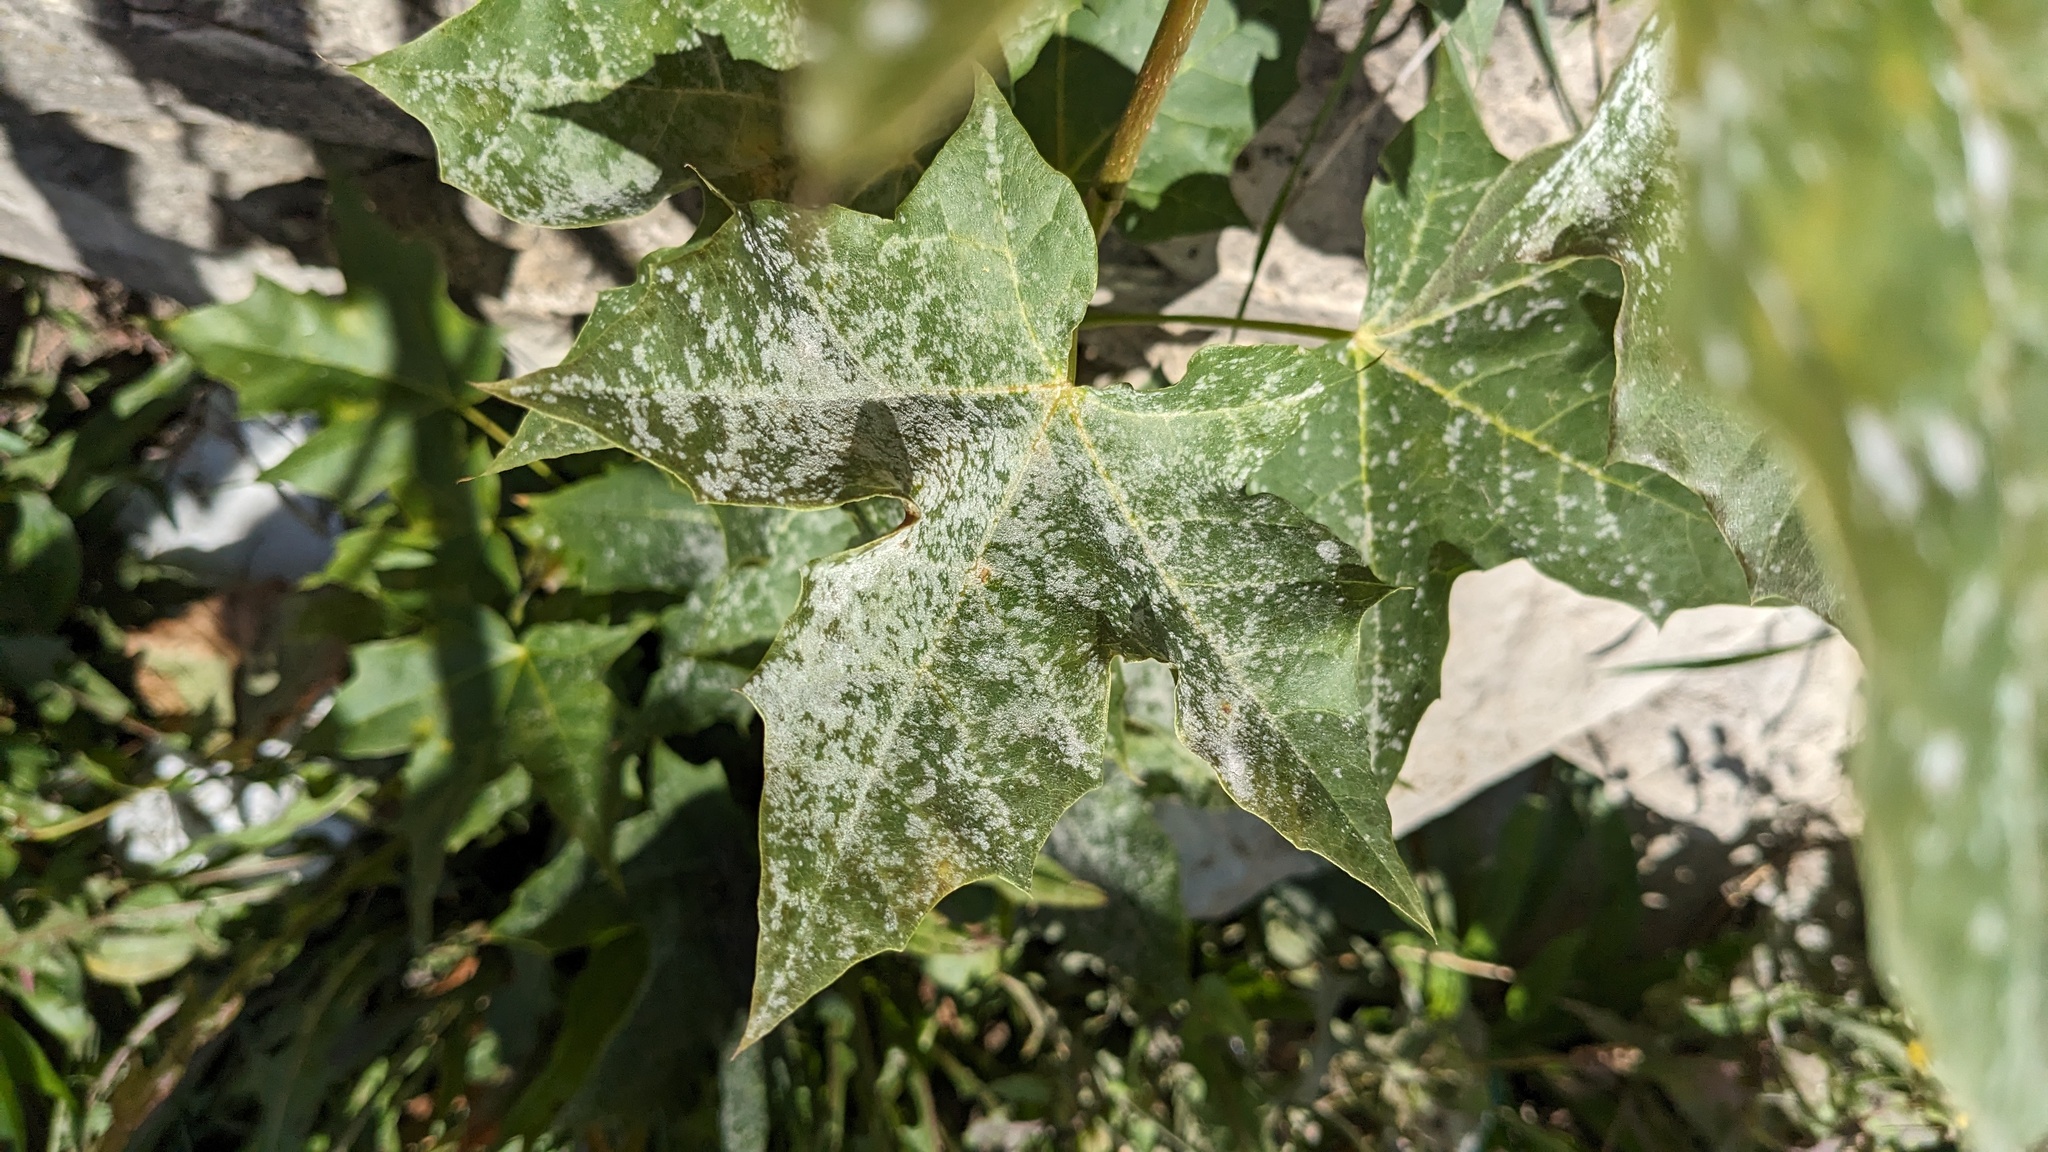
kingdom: Fungi
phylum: Ascomycota
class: Leotiomycetes
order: Helotiales
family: Erysiphaceae
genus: Sawadaea
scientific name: Sawadaea tulasnei
